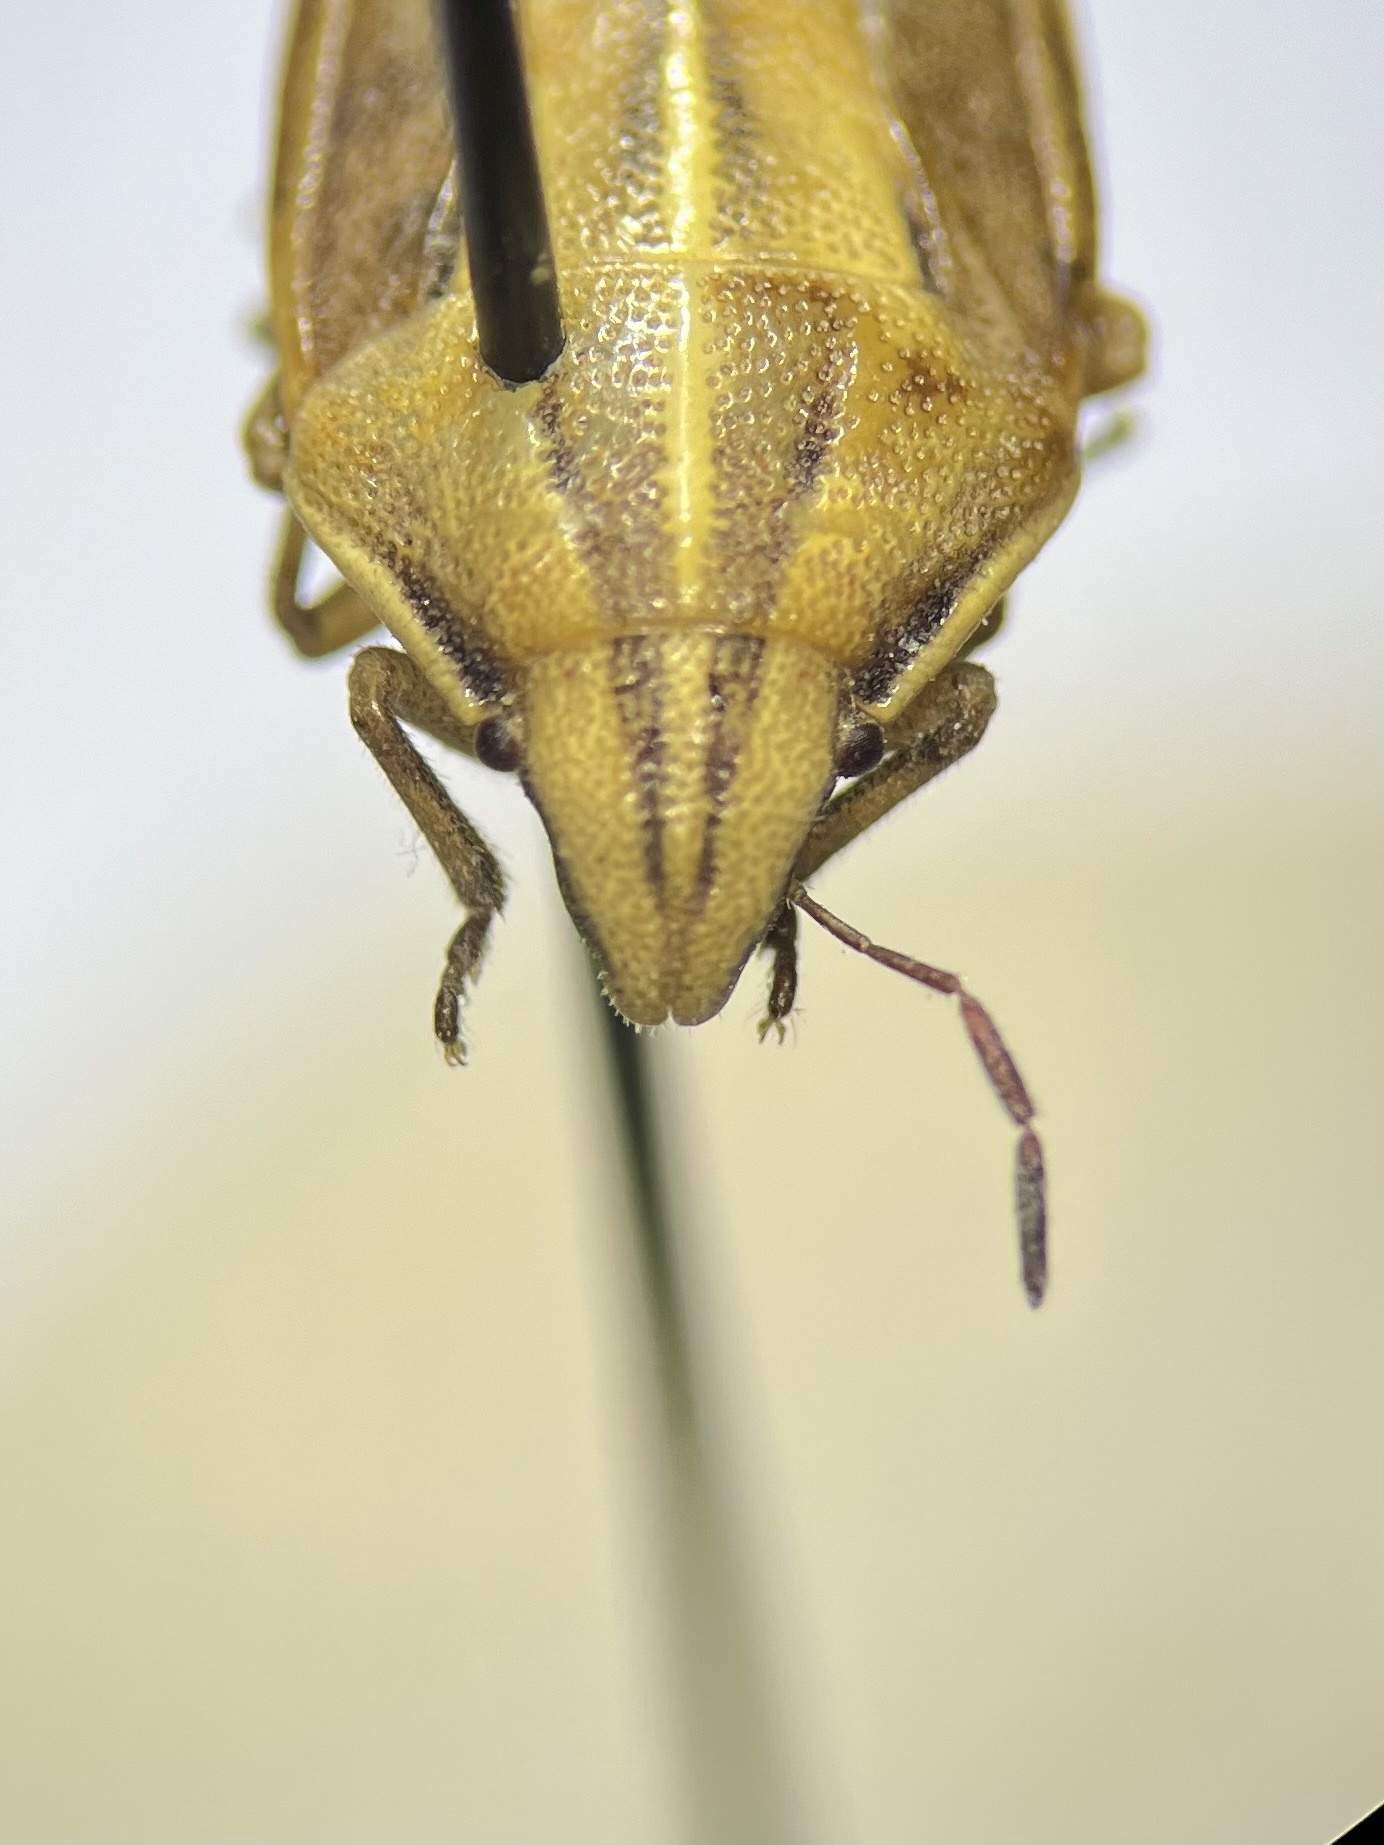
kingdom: Animalia
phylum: Arthropoda
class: Insecta
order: Hemiptera
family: Pentatomidae
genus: Aelia
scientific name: Aelia americana
